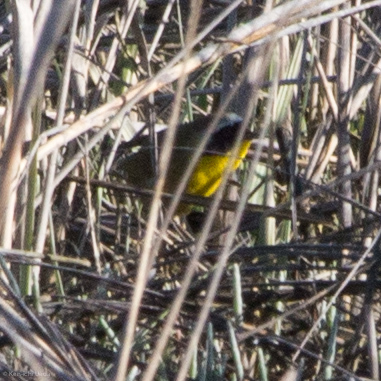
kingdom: Animalia
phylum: Chordata
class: Aves
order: Passeriformes
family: Parulidae
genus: Geothlypis
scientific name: Geothlypis trichas
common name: Common yellowthroat
